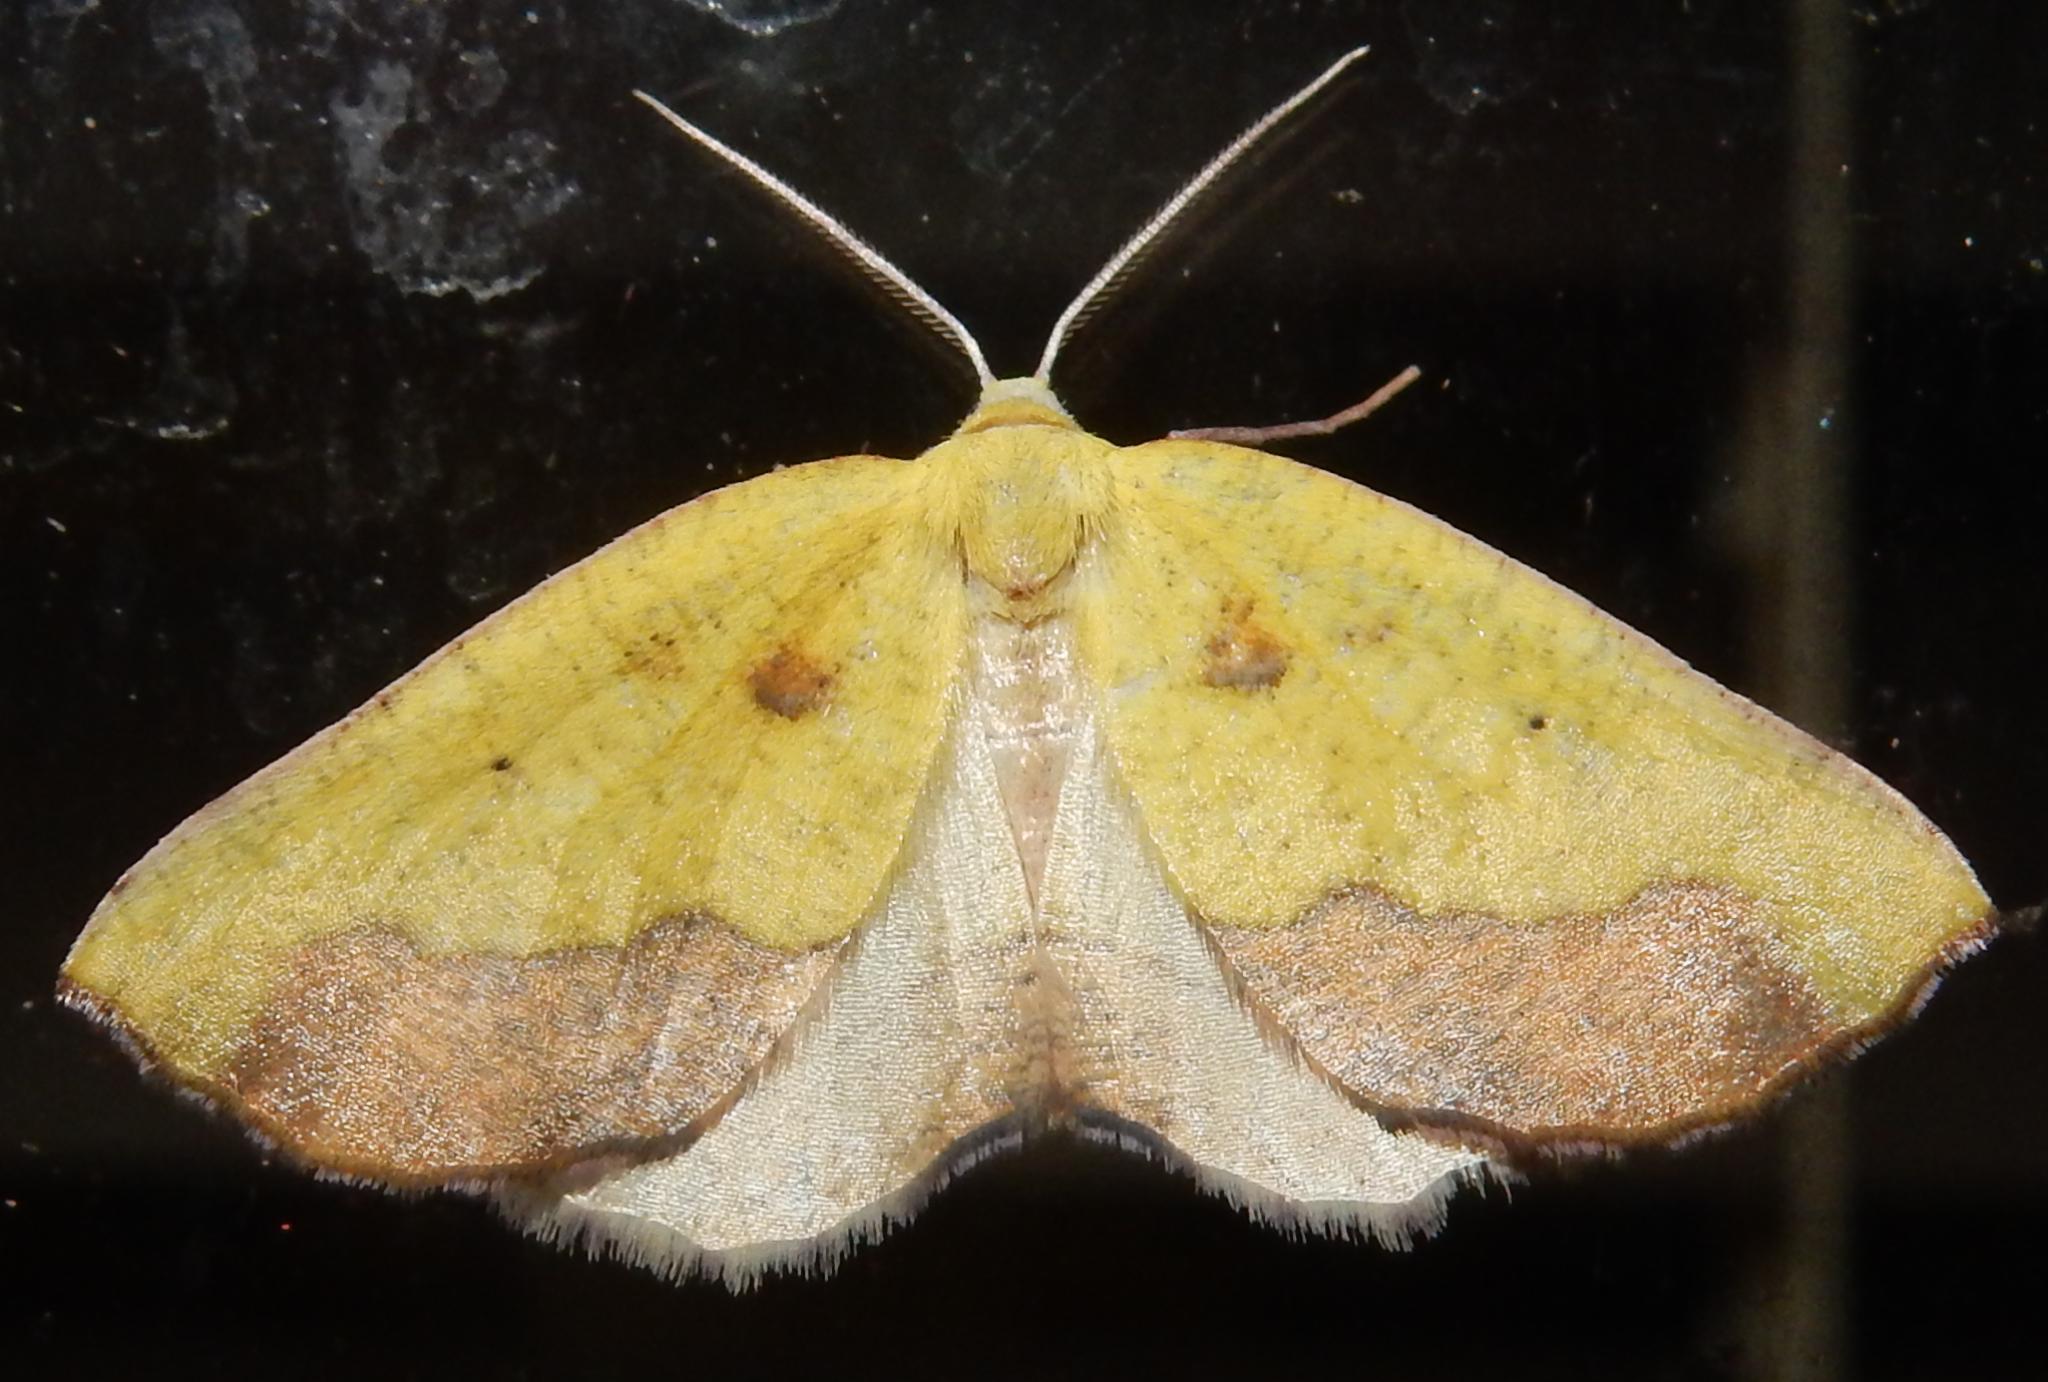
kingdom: Animalia
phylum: Arthropoda
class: Insecta
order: Lepidoptera
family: Geometridae
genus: Sicyodes
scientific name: Sicyodes cambogiaria
